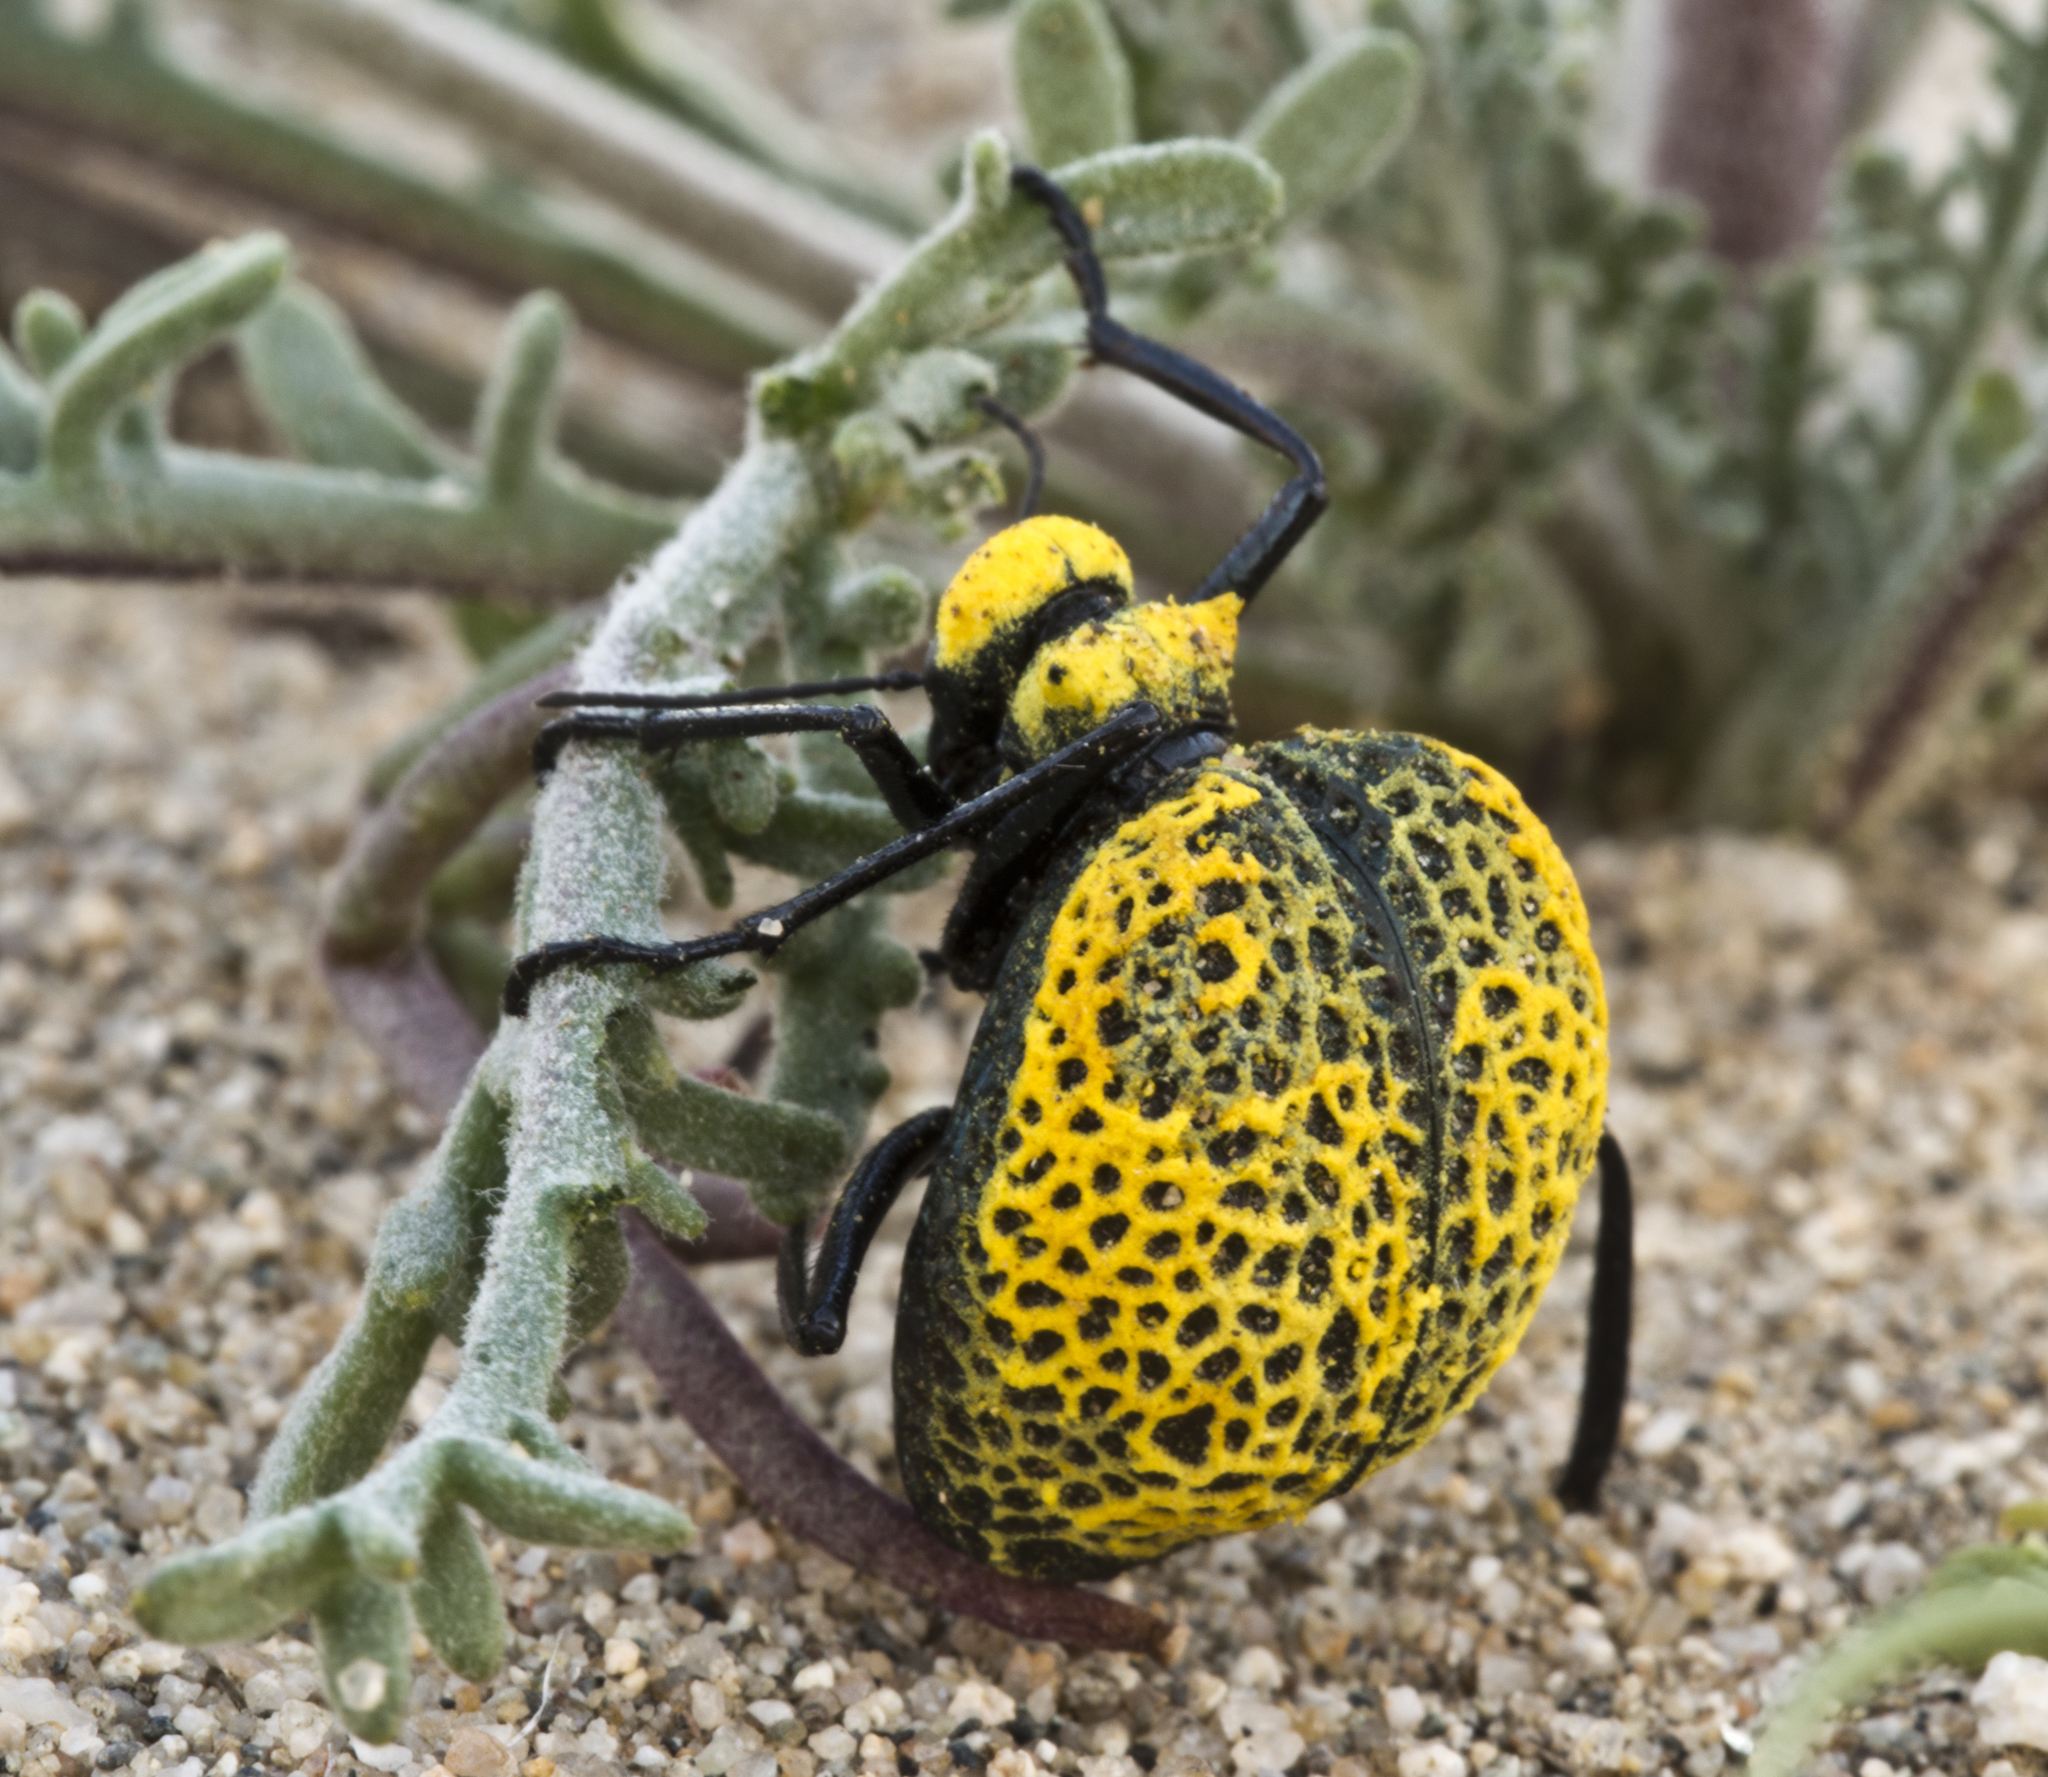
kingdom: Animalia
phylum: Arthropoda
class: Insecta
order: Coleoptera
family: Meloidae
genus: Cysteodemus
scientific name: Cysteodemus armatus
